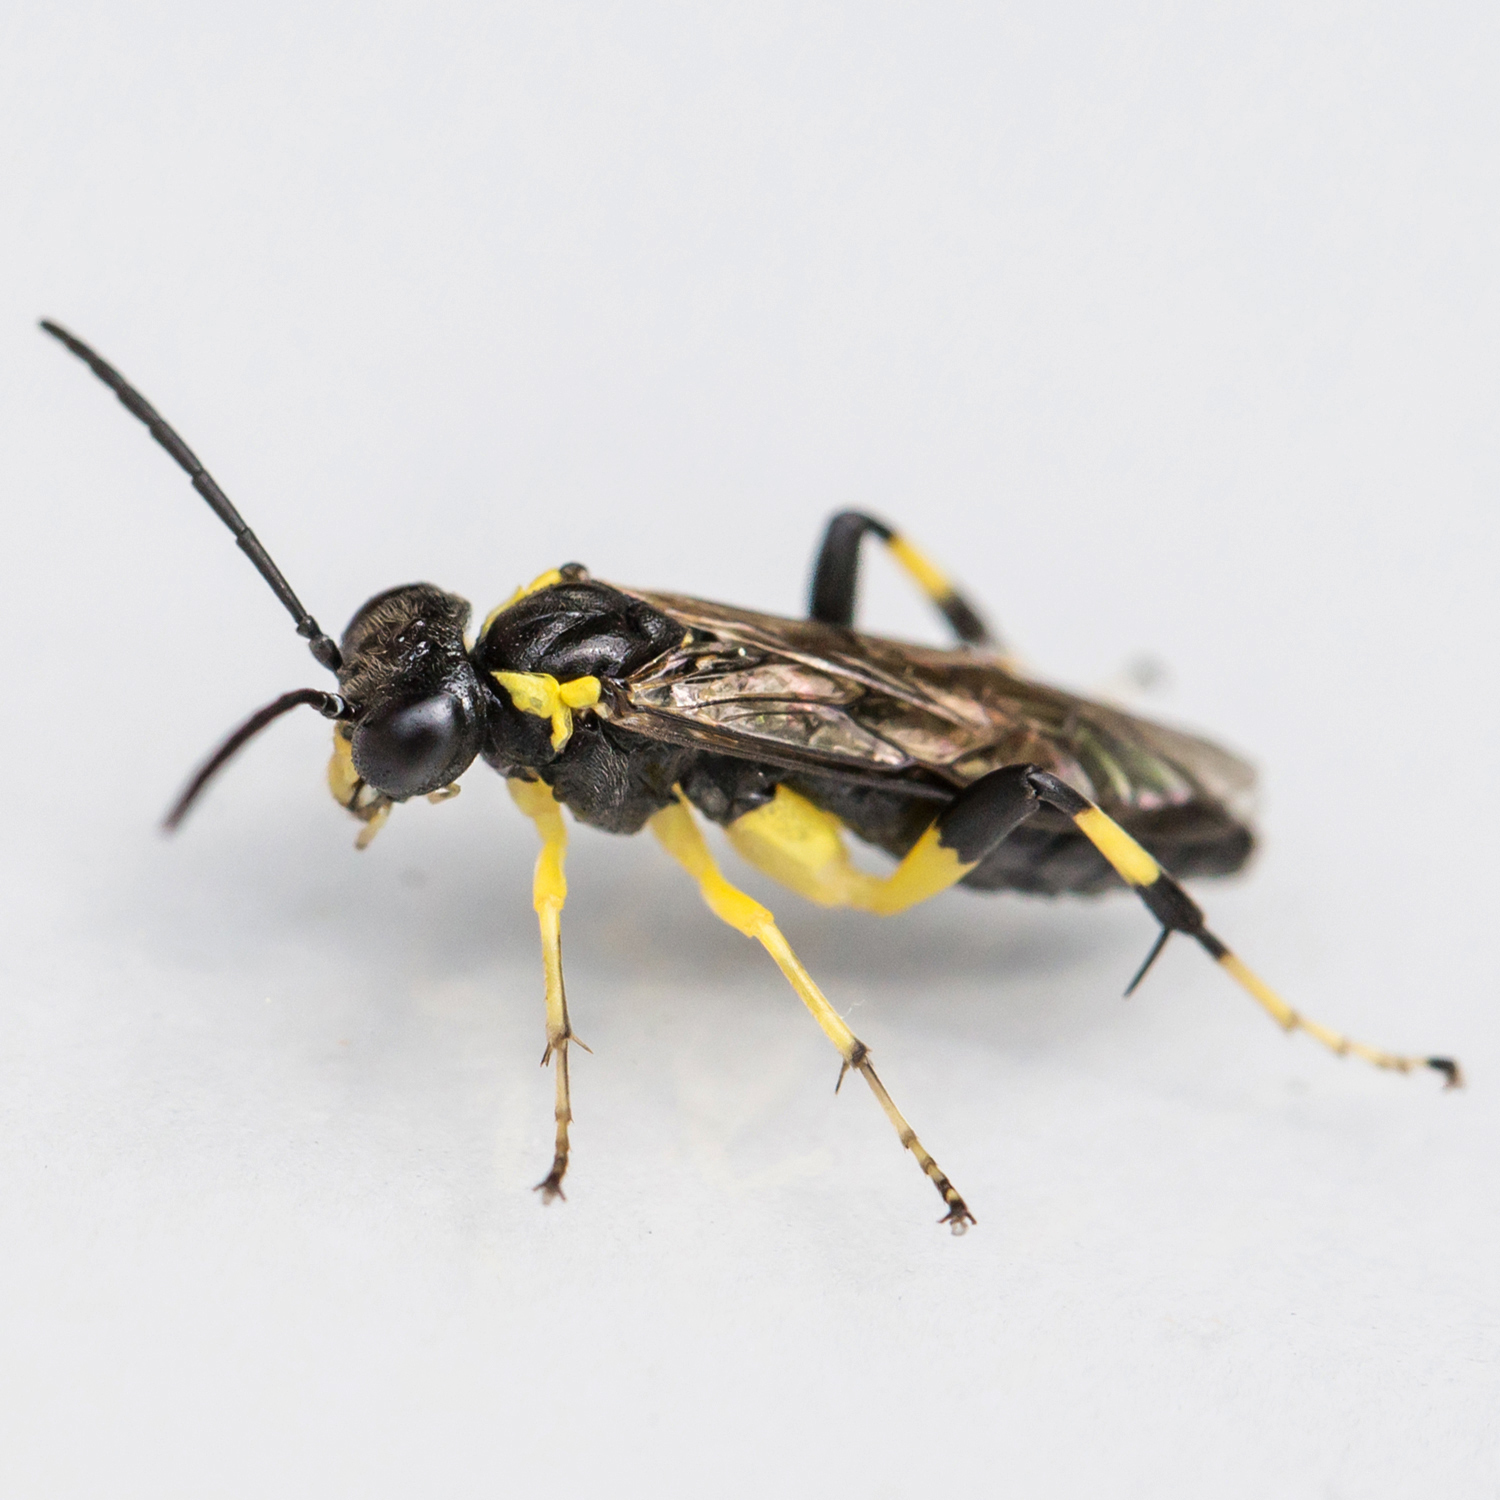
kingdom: Animalia
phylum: Arthropoda
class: Insecta
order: Hymenoptera
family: Tenthredinidae
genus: Macrophya
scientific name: Macrophya flavicoxae
